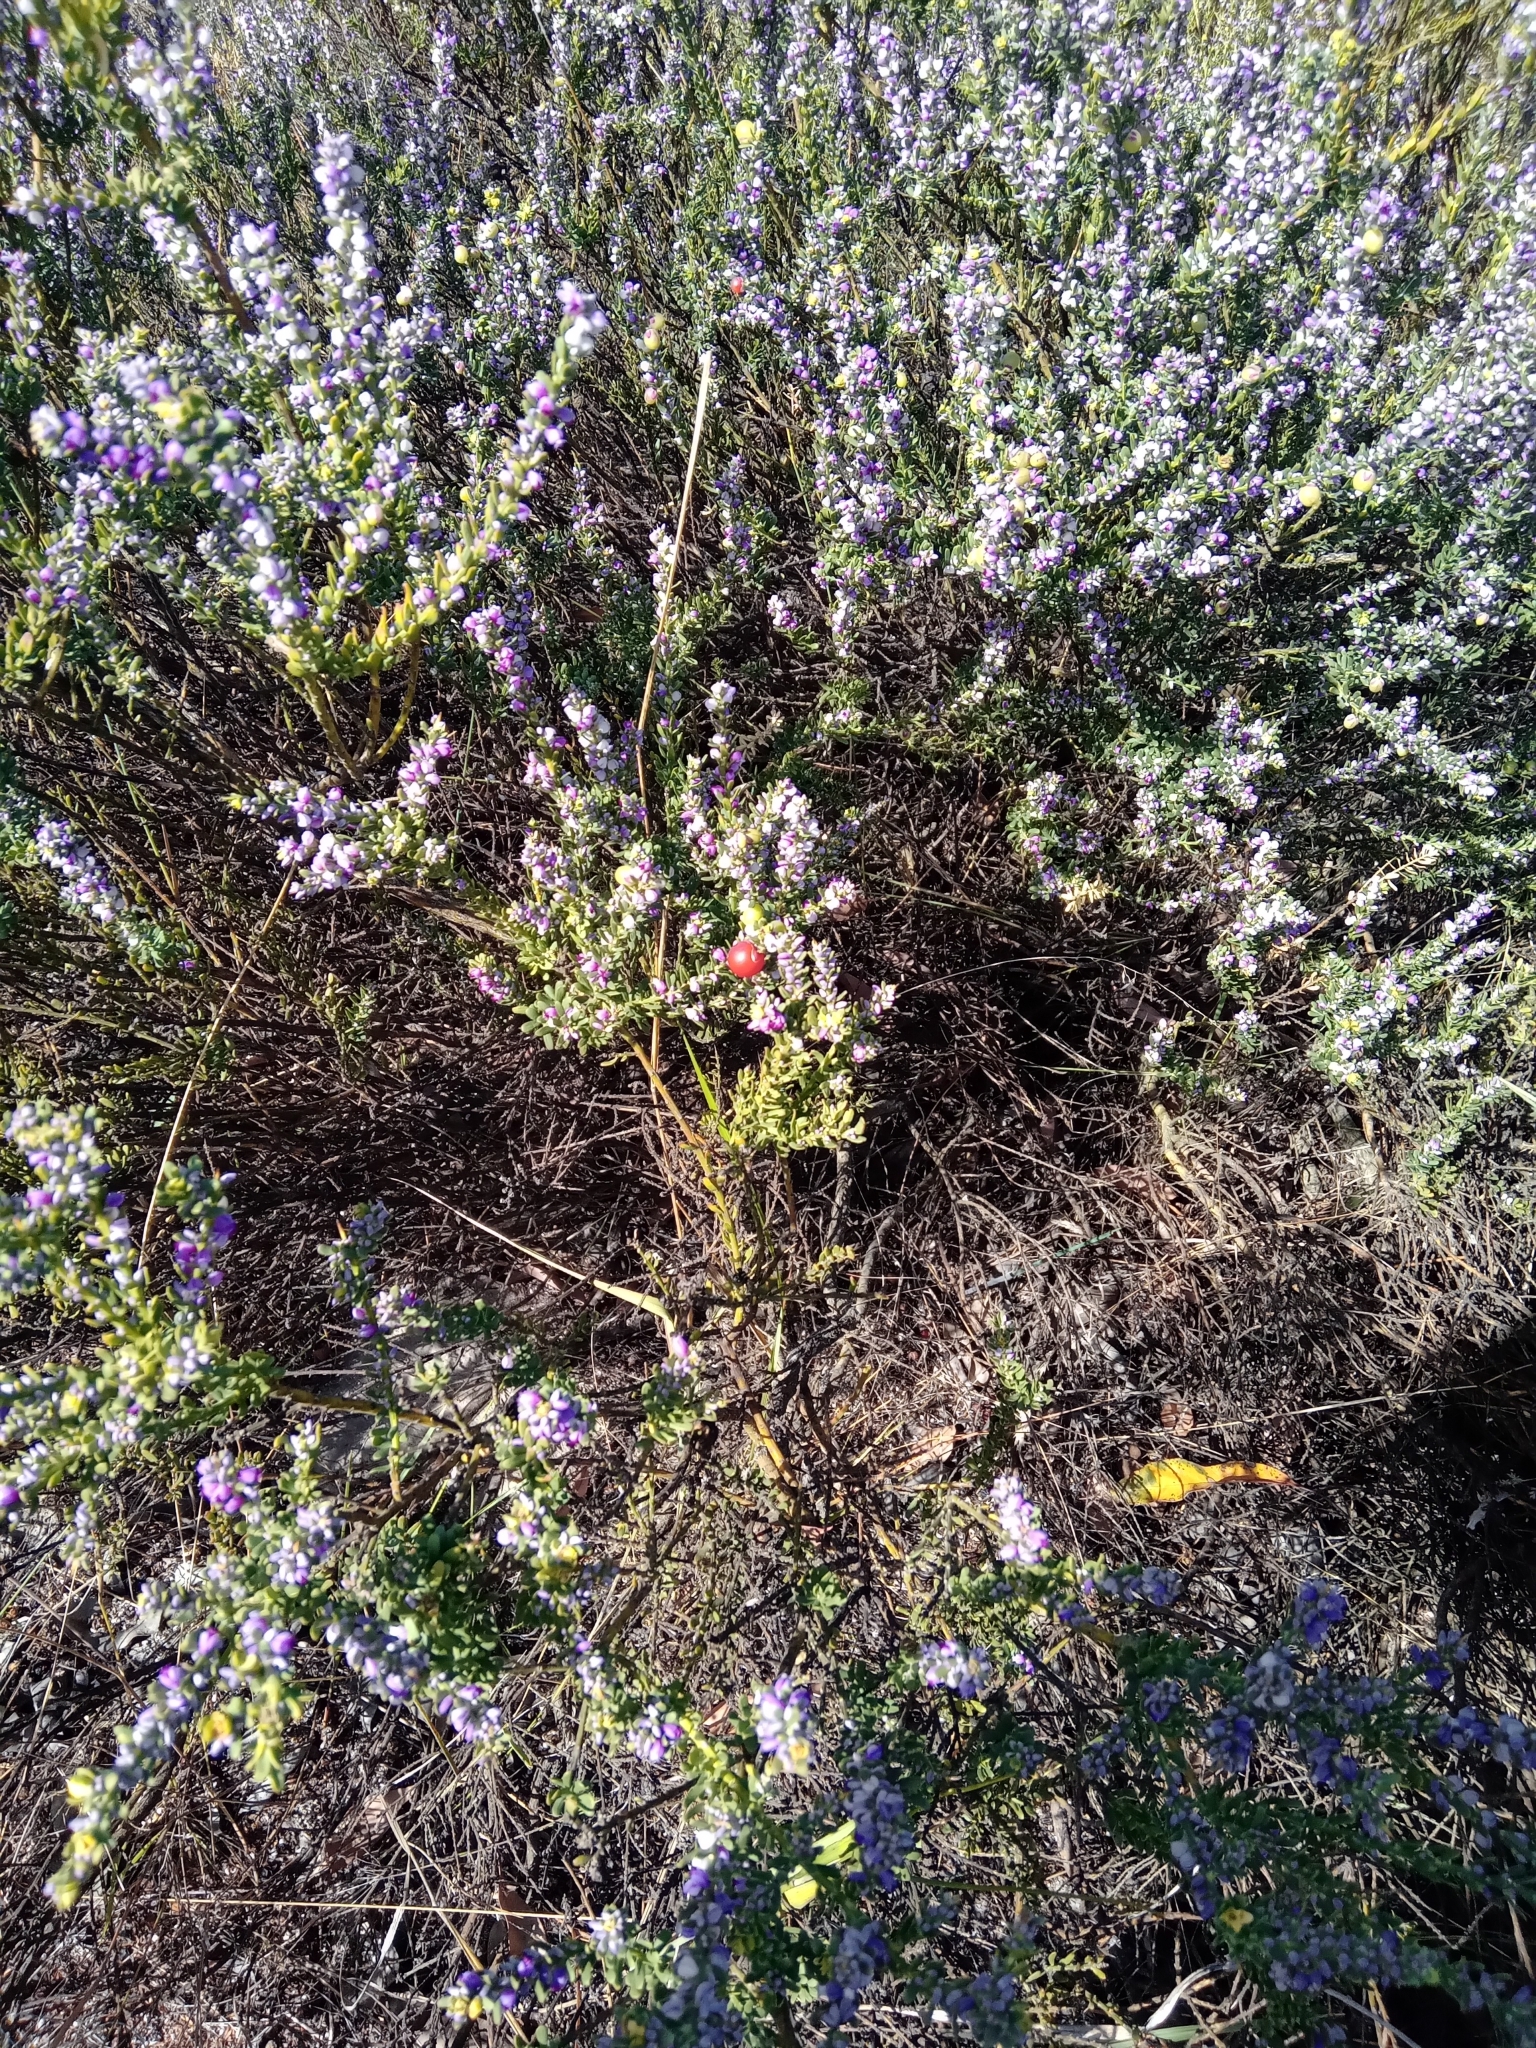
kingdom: Plantae
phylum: Tracheophyta
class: Magnoliopsida
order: Fabales
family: Polygalaceae
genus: Muraltia
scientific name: Muraltia spinosa
